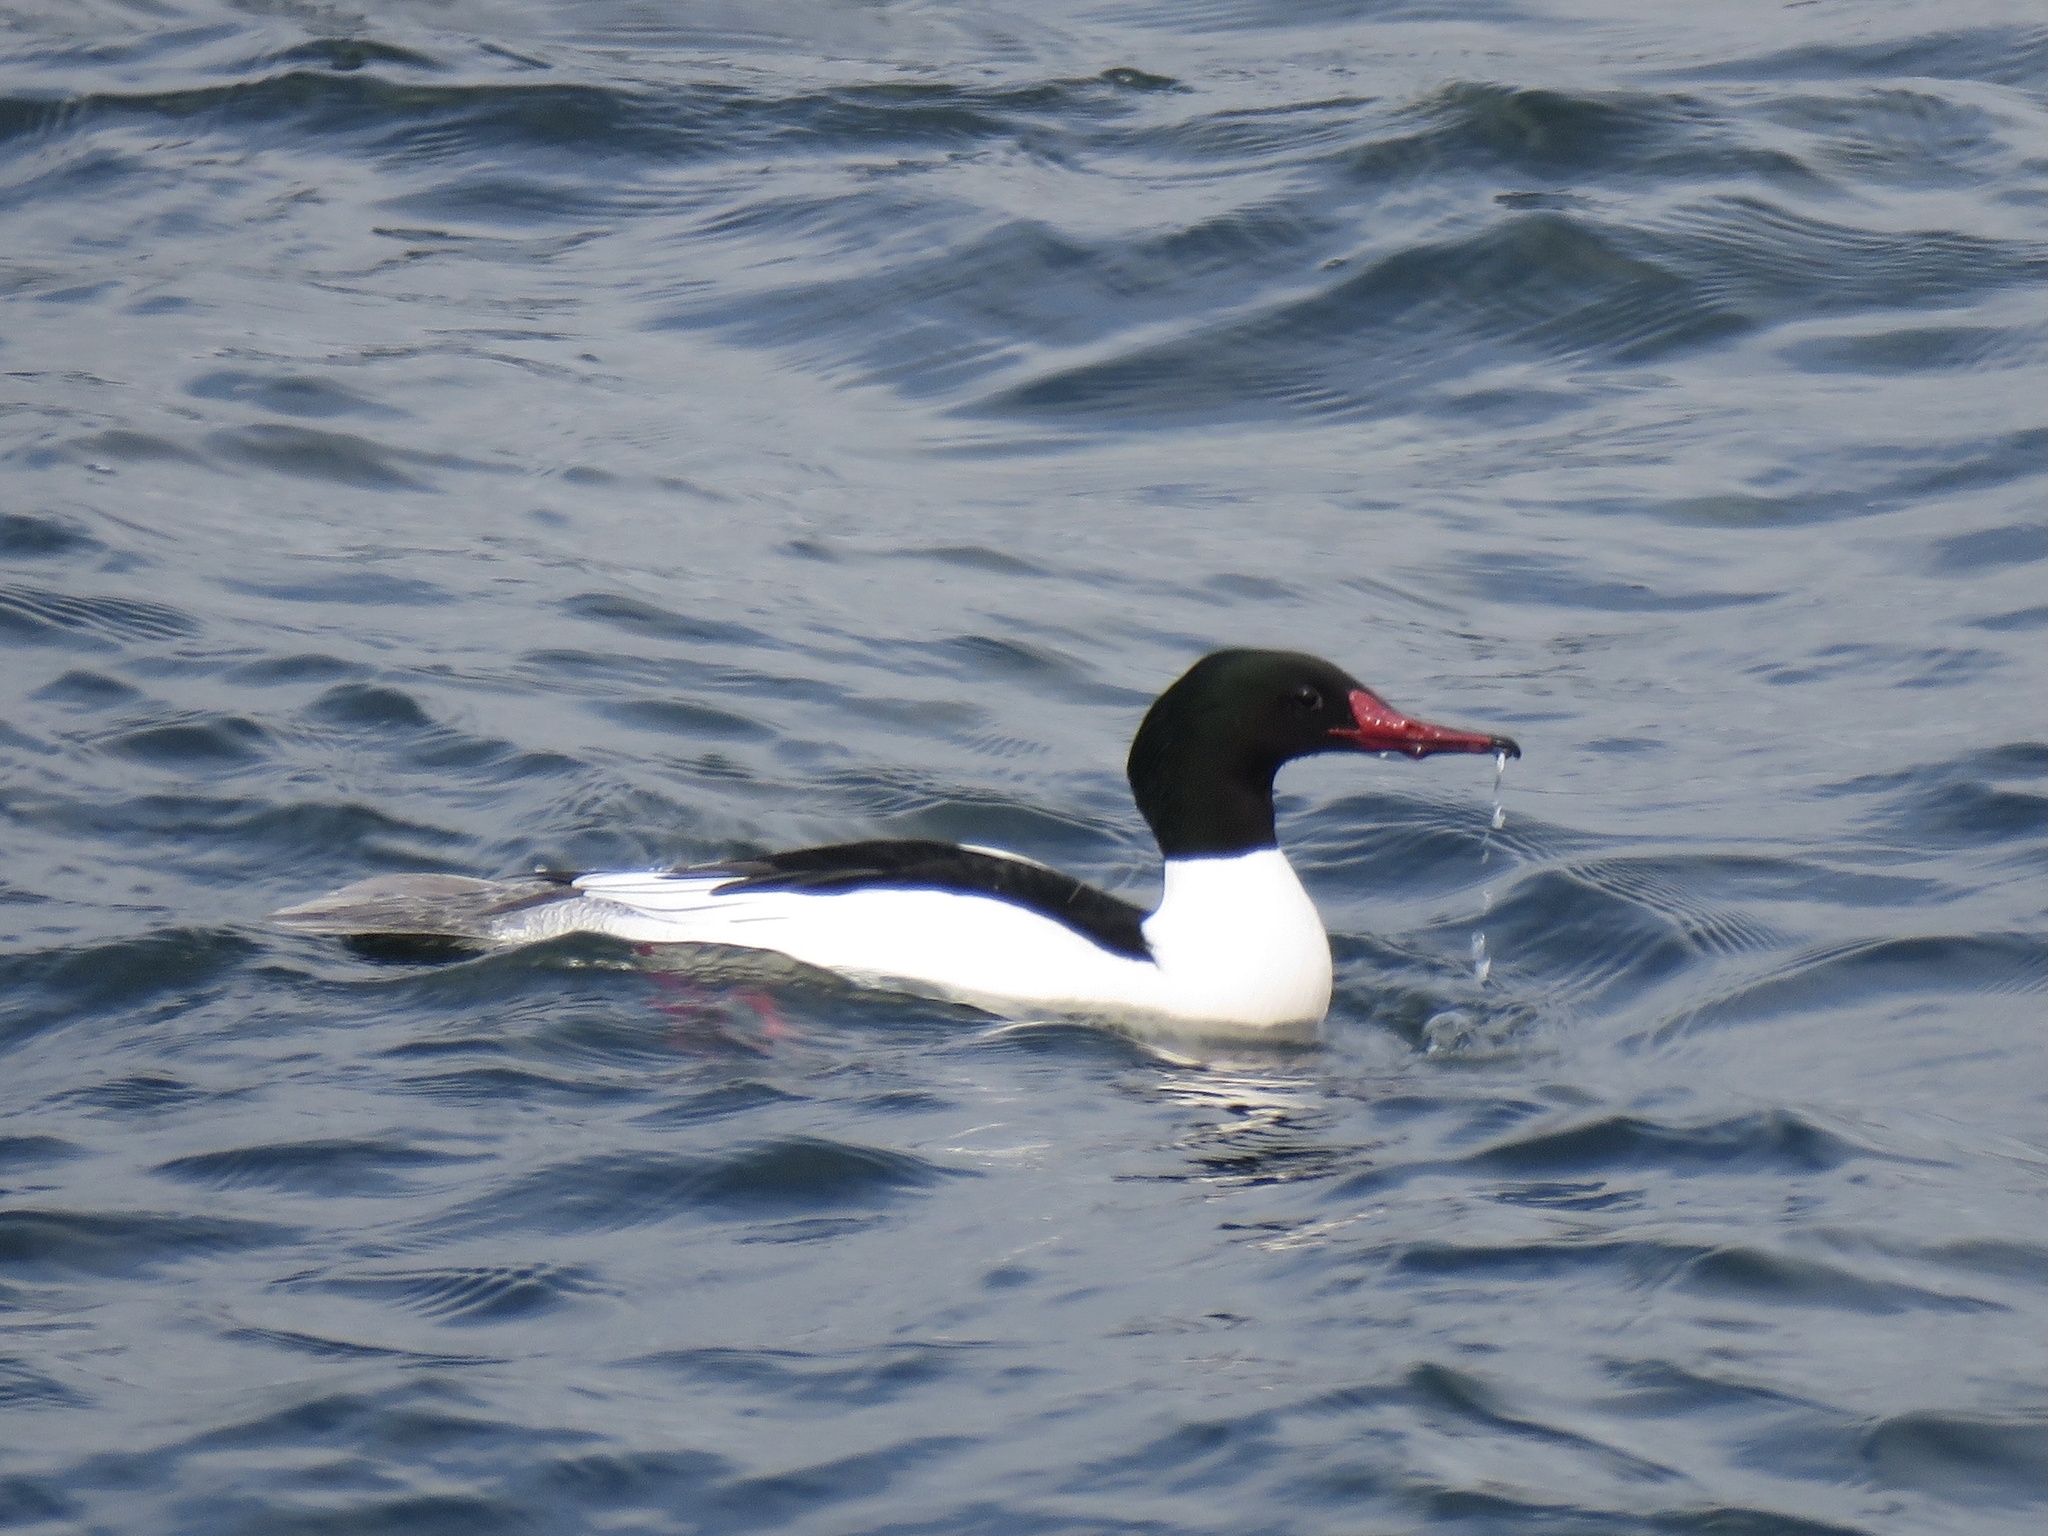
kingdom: Animalia
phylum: Chordata
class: Aves
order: Anseriformes
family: Anatidae
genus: Mergus
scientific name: Mergus merganser
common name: Common merganser
